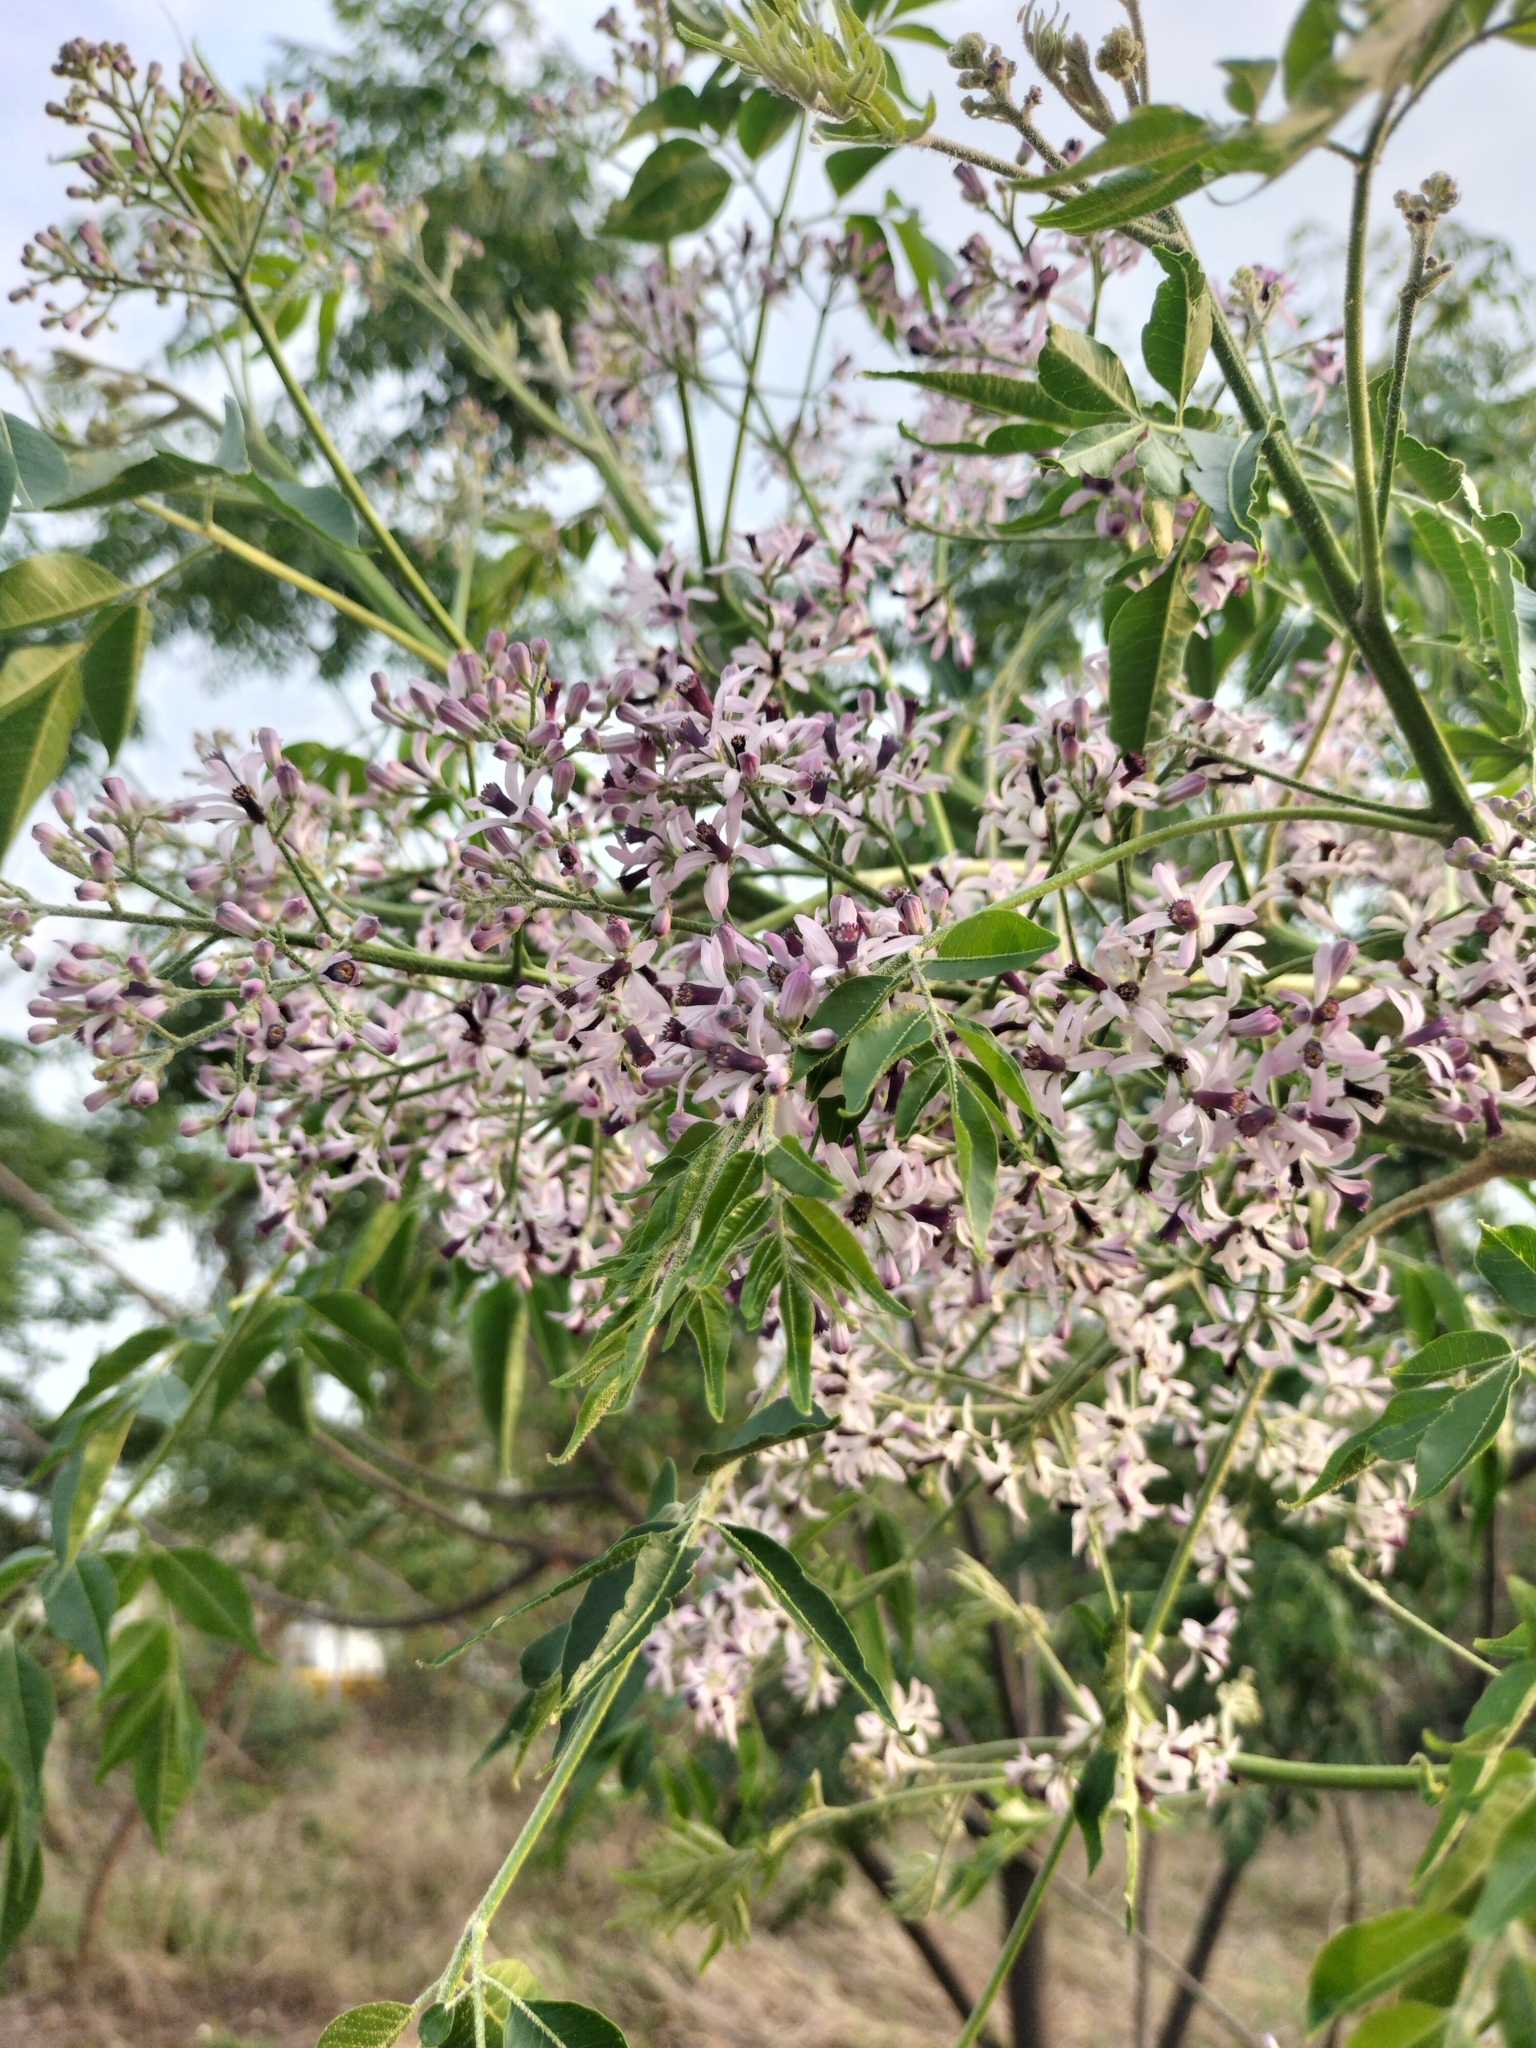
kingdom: Plantae
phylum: Tracheophyta
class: Magnoliopsida
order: Sapindales
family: Meliaceae
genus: Melia
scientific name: Melia azedarach
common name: Chinaberrytree
